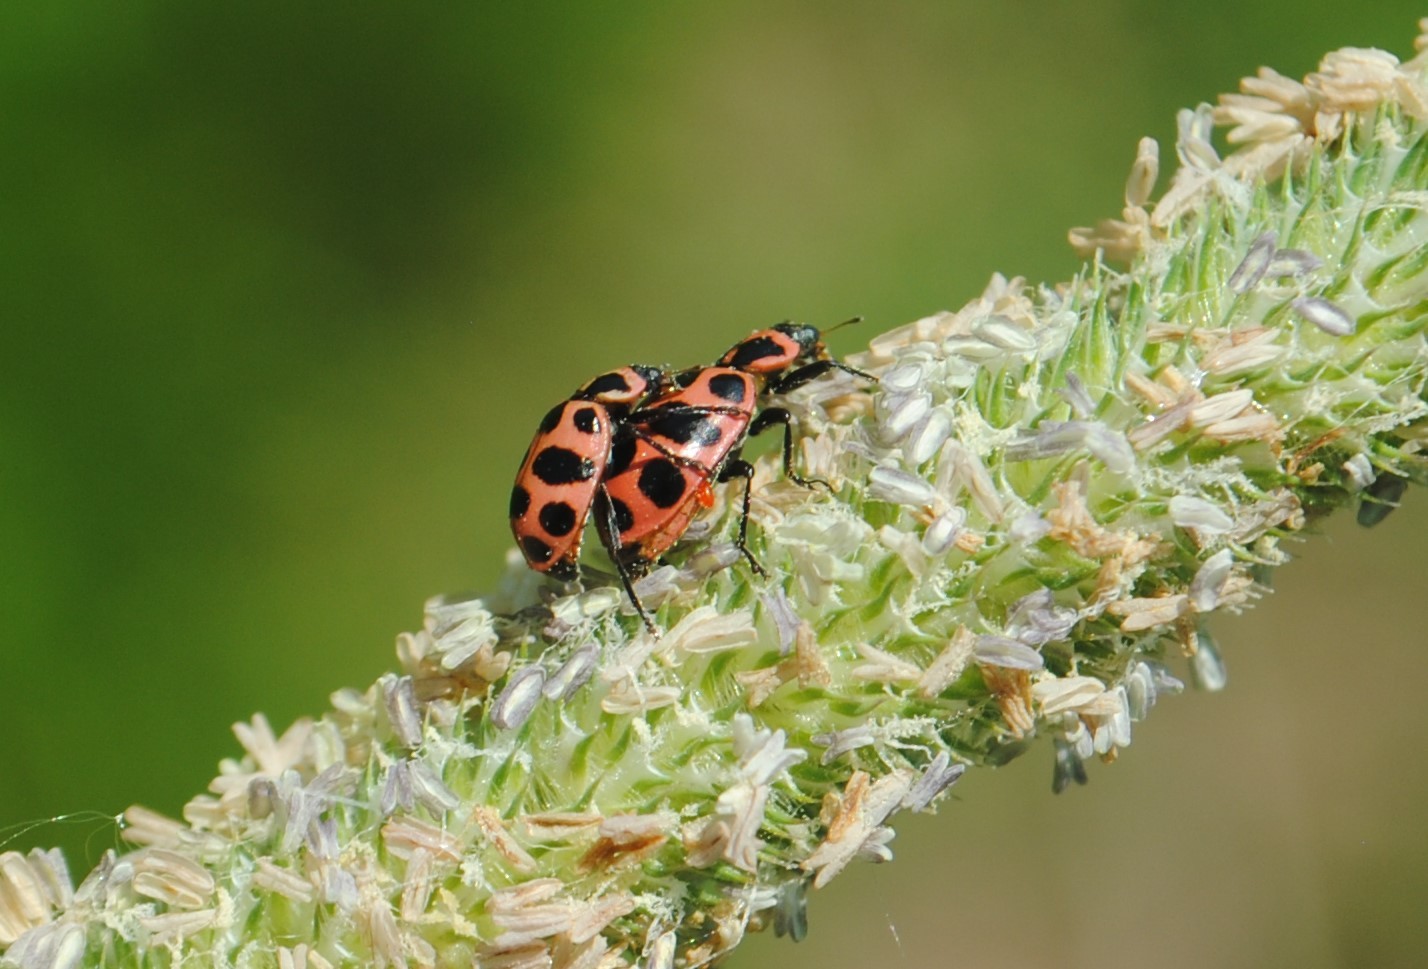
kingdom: Animalia
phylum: Arthropoda
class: Insecta
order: Coleoptera
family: Coccinellidae
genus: Coleomegilla
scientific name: Coleomegilla maculata
